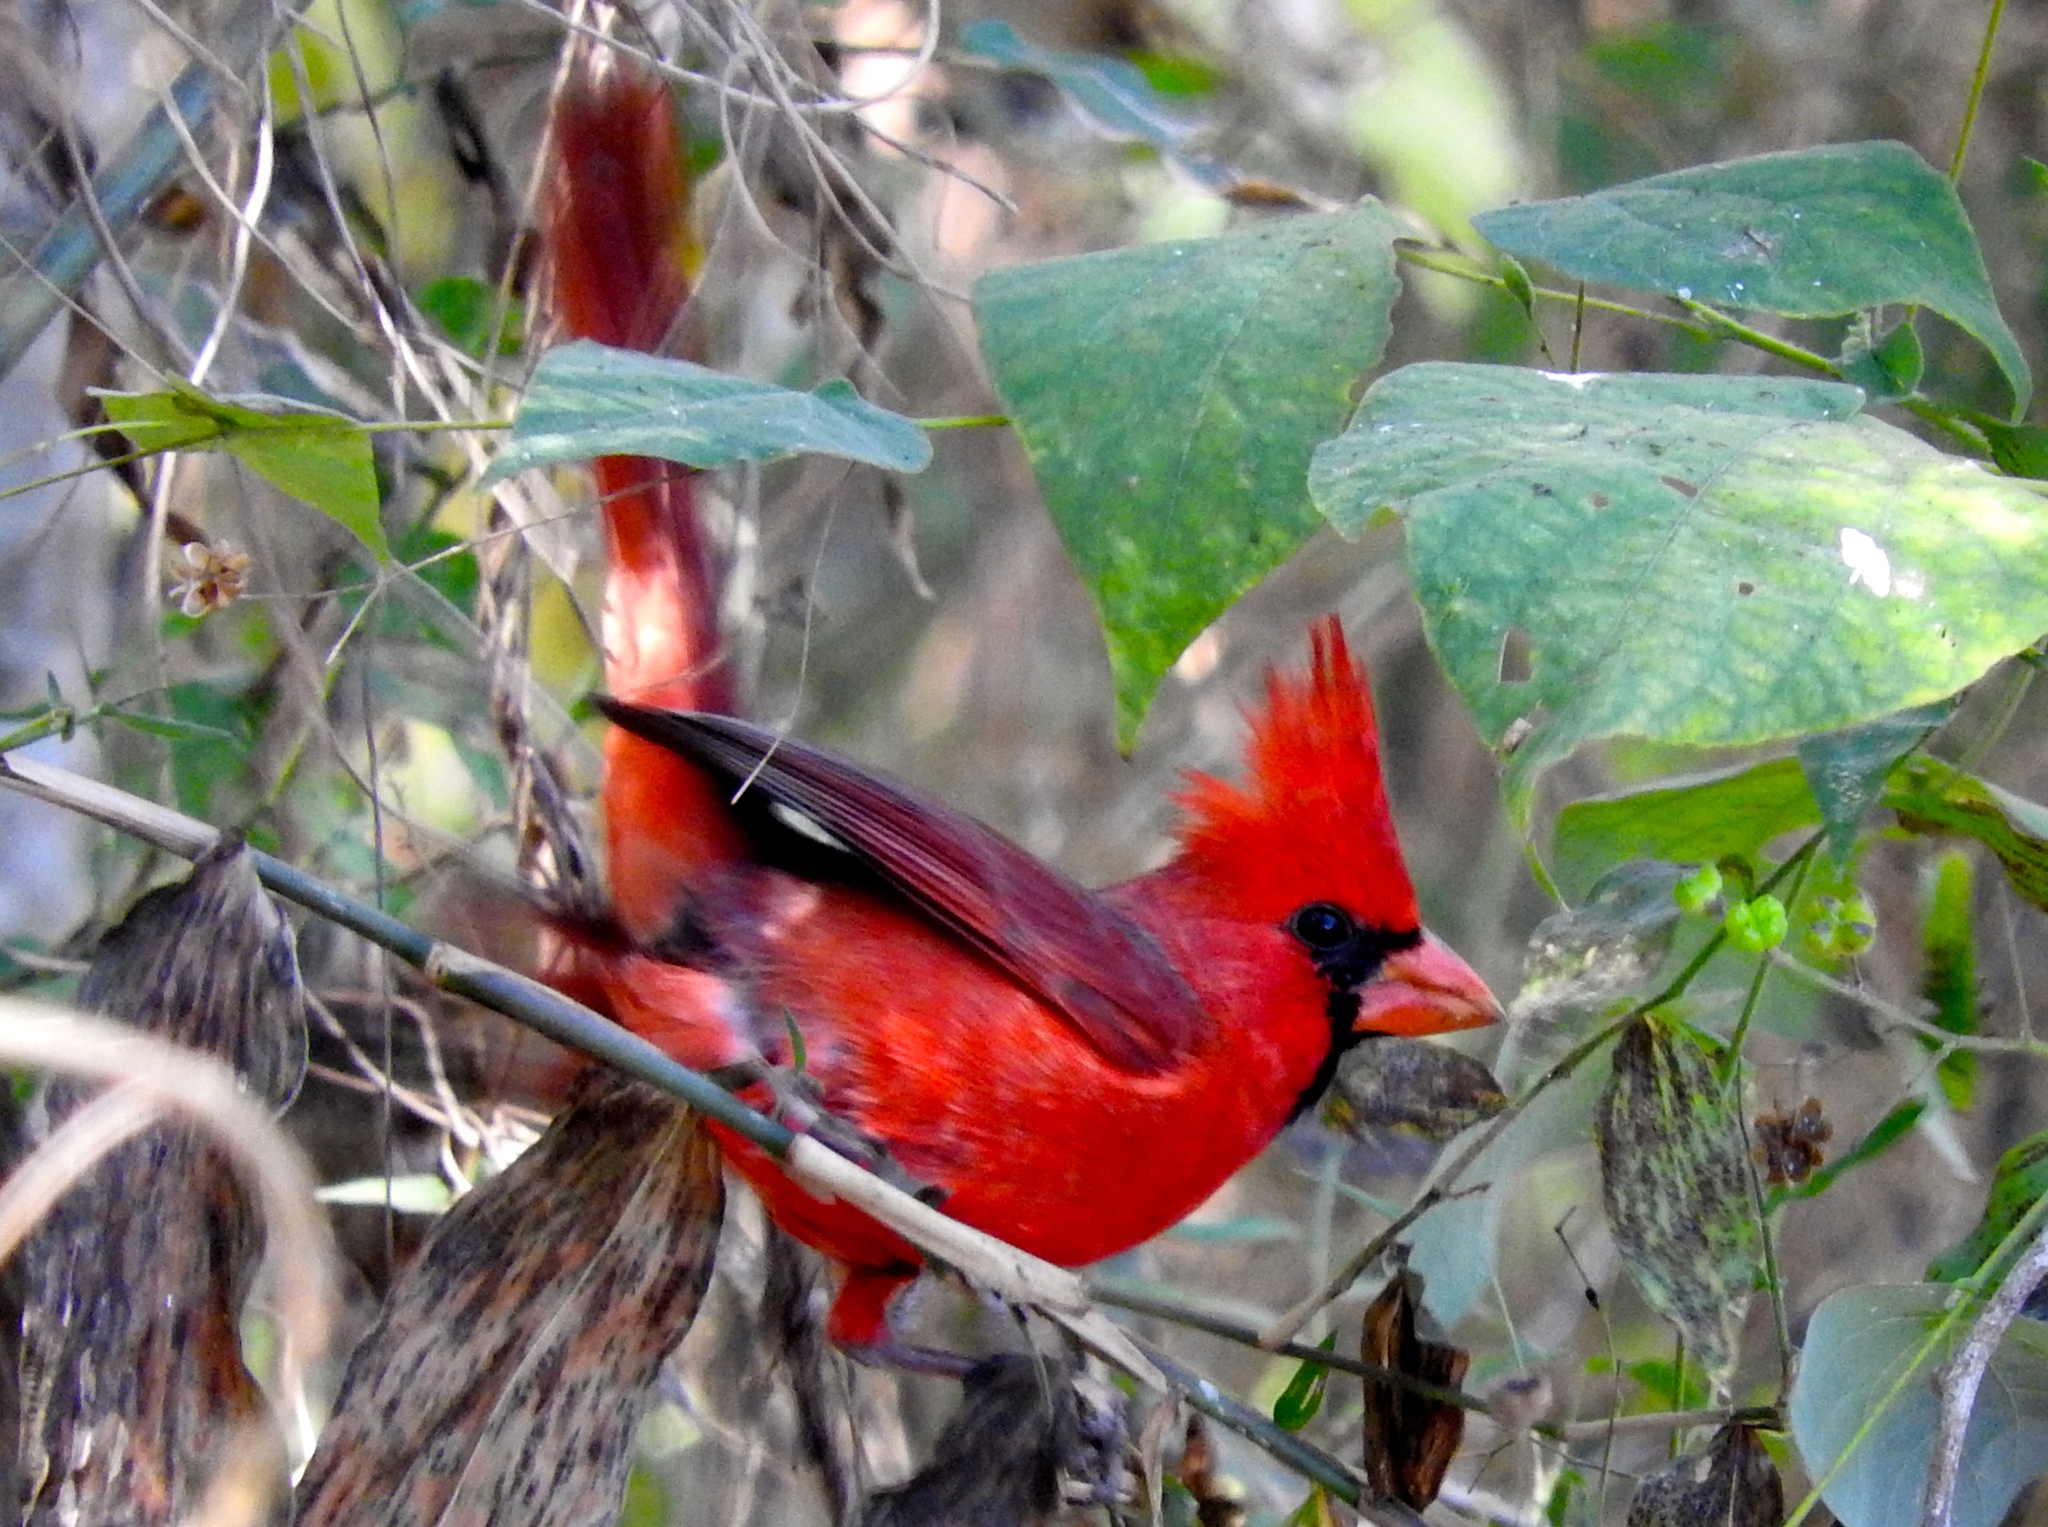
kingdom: Animalia
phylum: Chordata
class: Aves
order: Passeriformes
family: Cardinalidae
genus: Cardinalis
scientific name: Cardinalis cardinalis
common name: Northern cardinal
